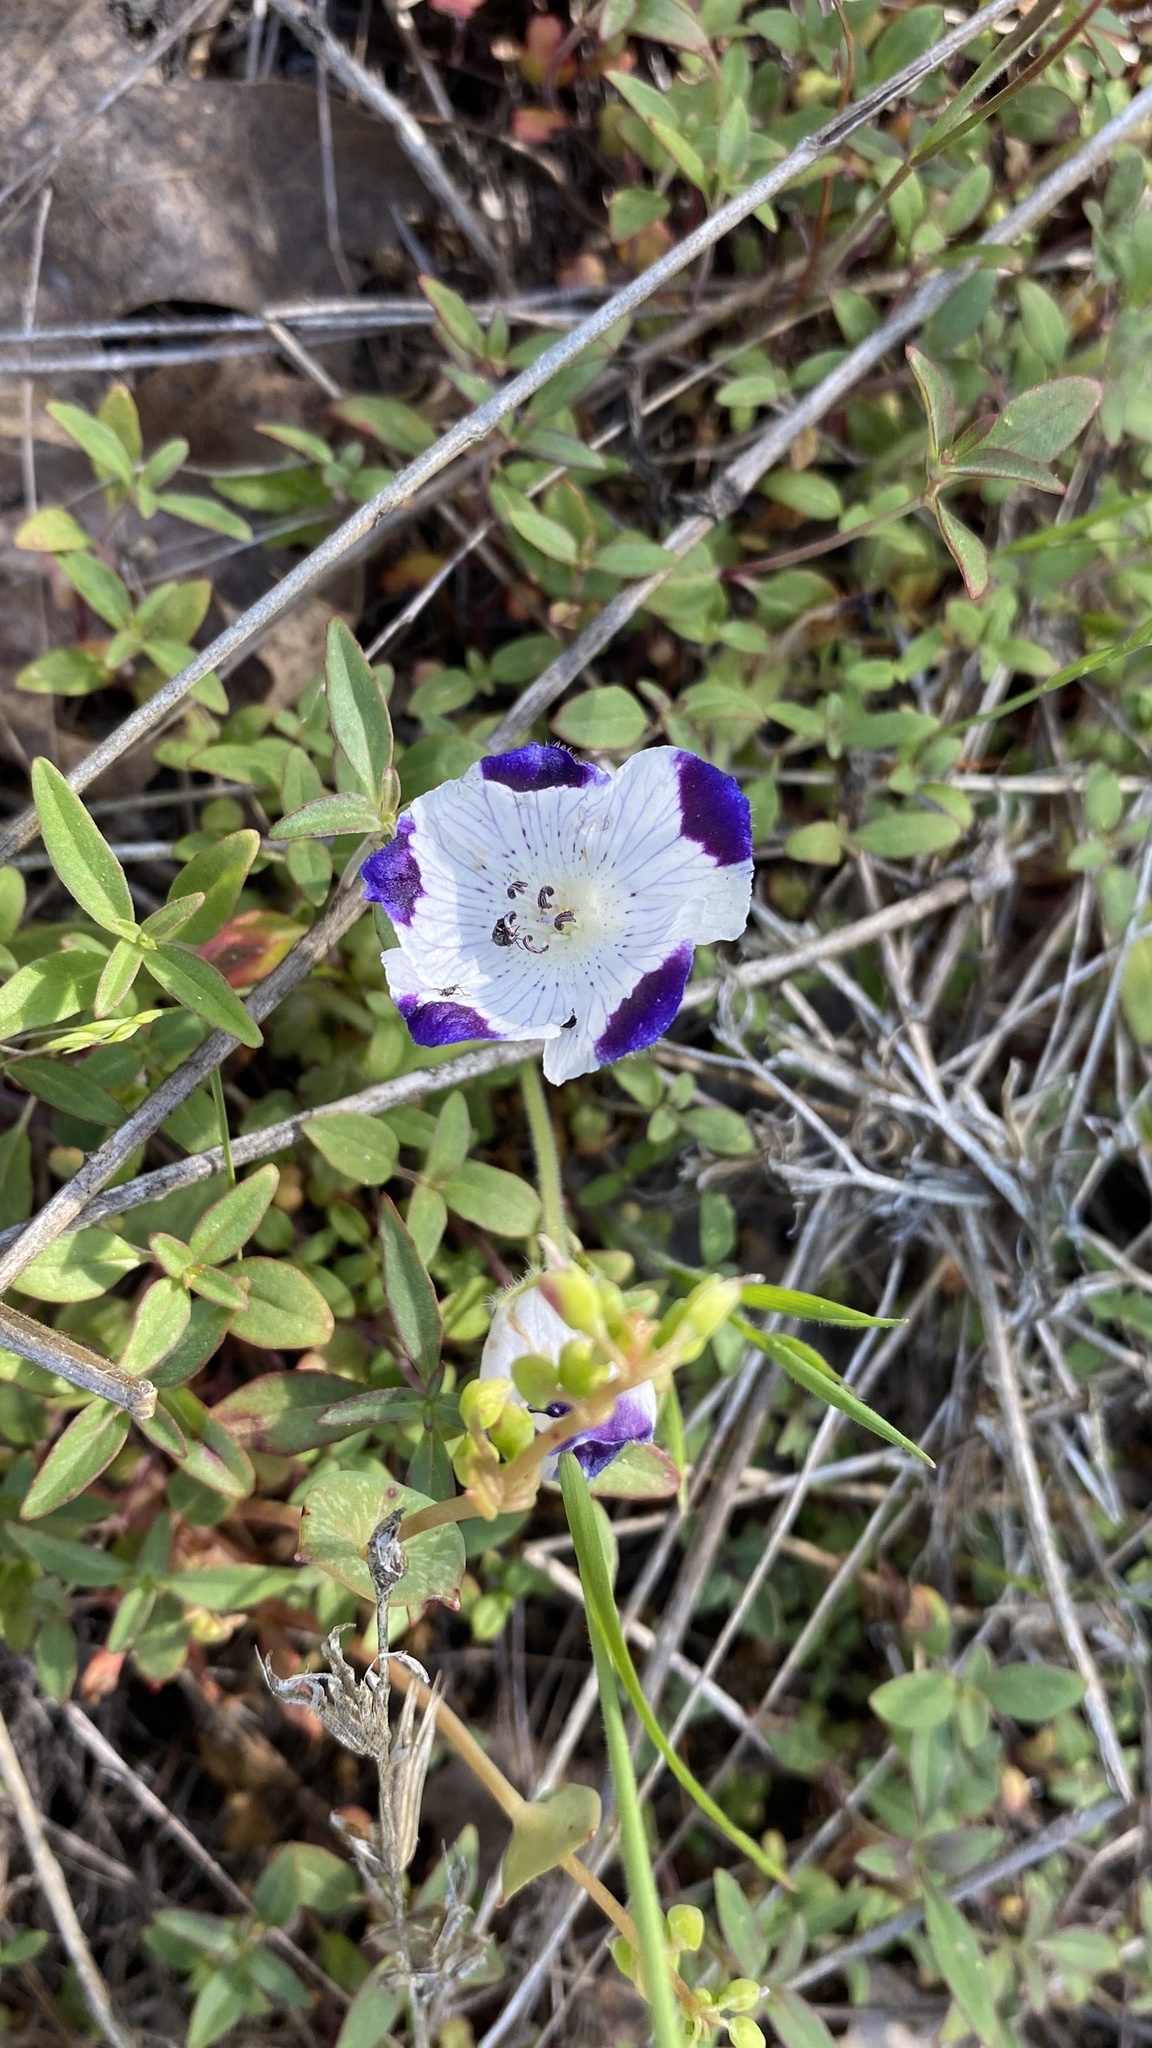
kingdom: Plantae
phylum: Tracheophyta
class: Magnoliopsida
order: Boraginales
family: Hydrophyllaceae
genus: Nemophila
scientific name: Nemophila maculata
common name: Fivespot
